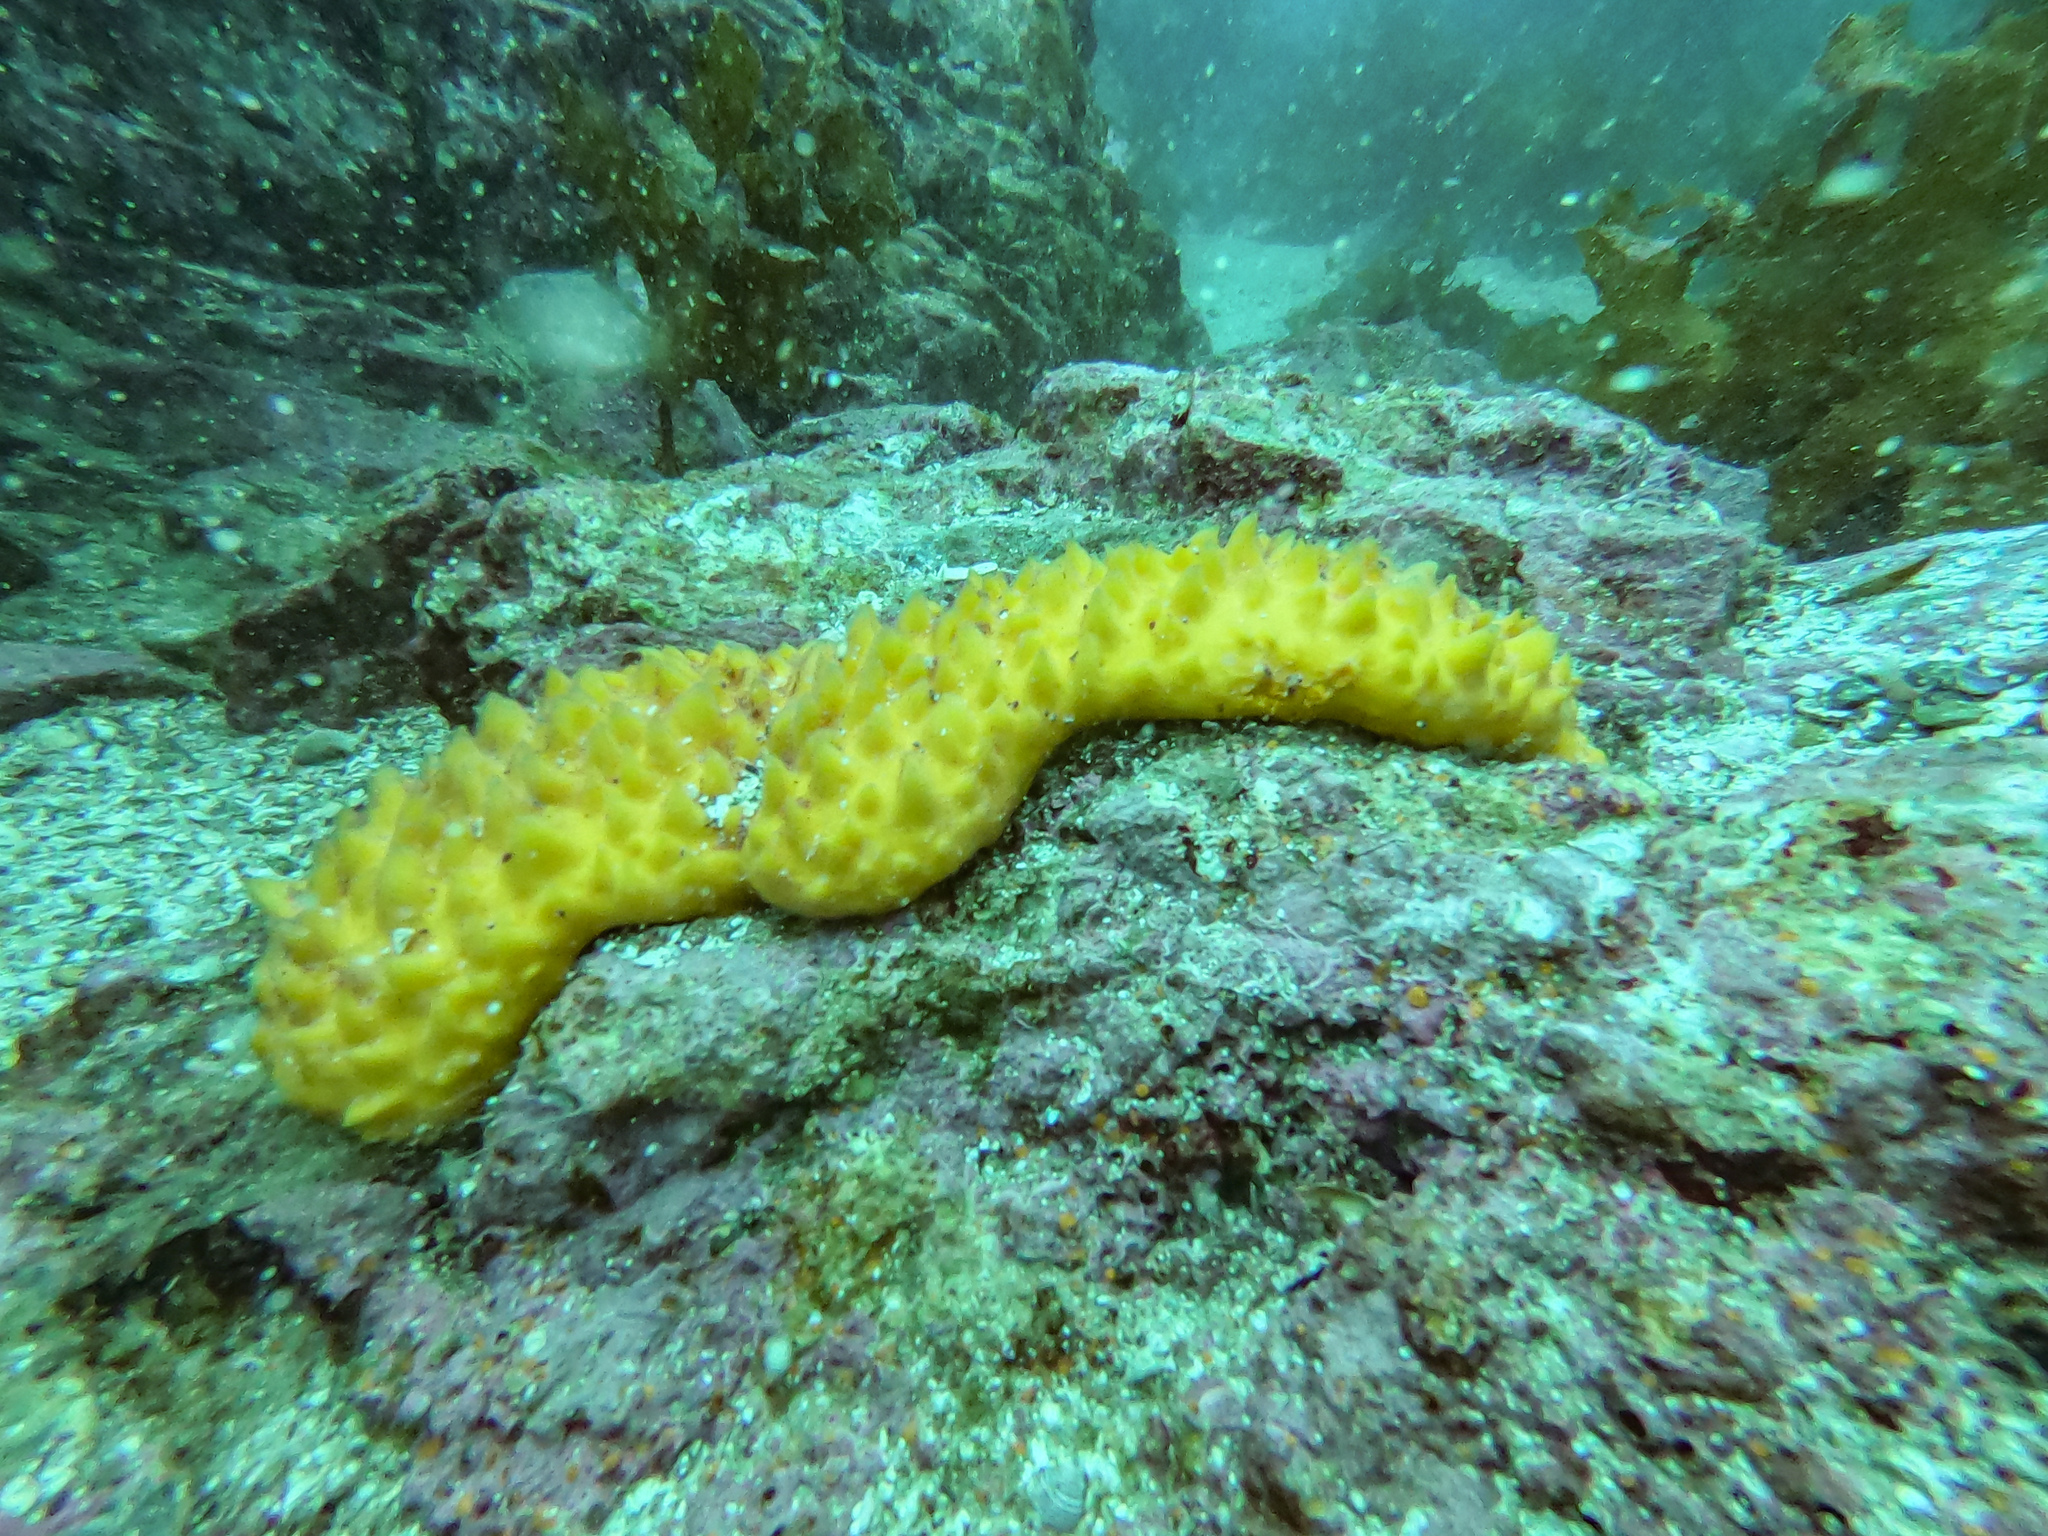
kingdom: Chromista
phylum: Ochrophyta
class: Phaeophyceae
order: Laminariales
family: Lessoniaceae
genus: Ecklonia
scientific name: Ecklonia radiata
